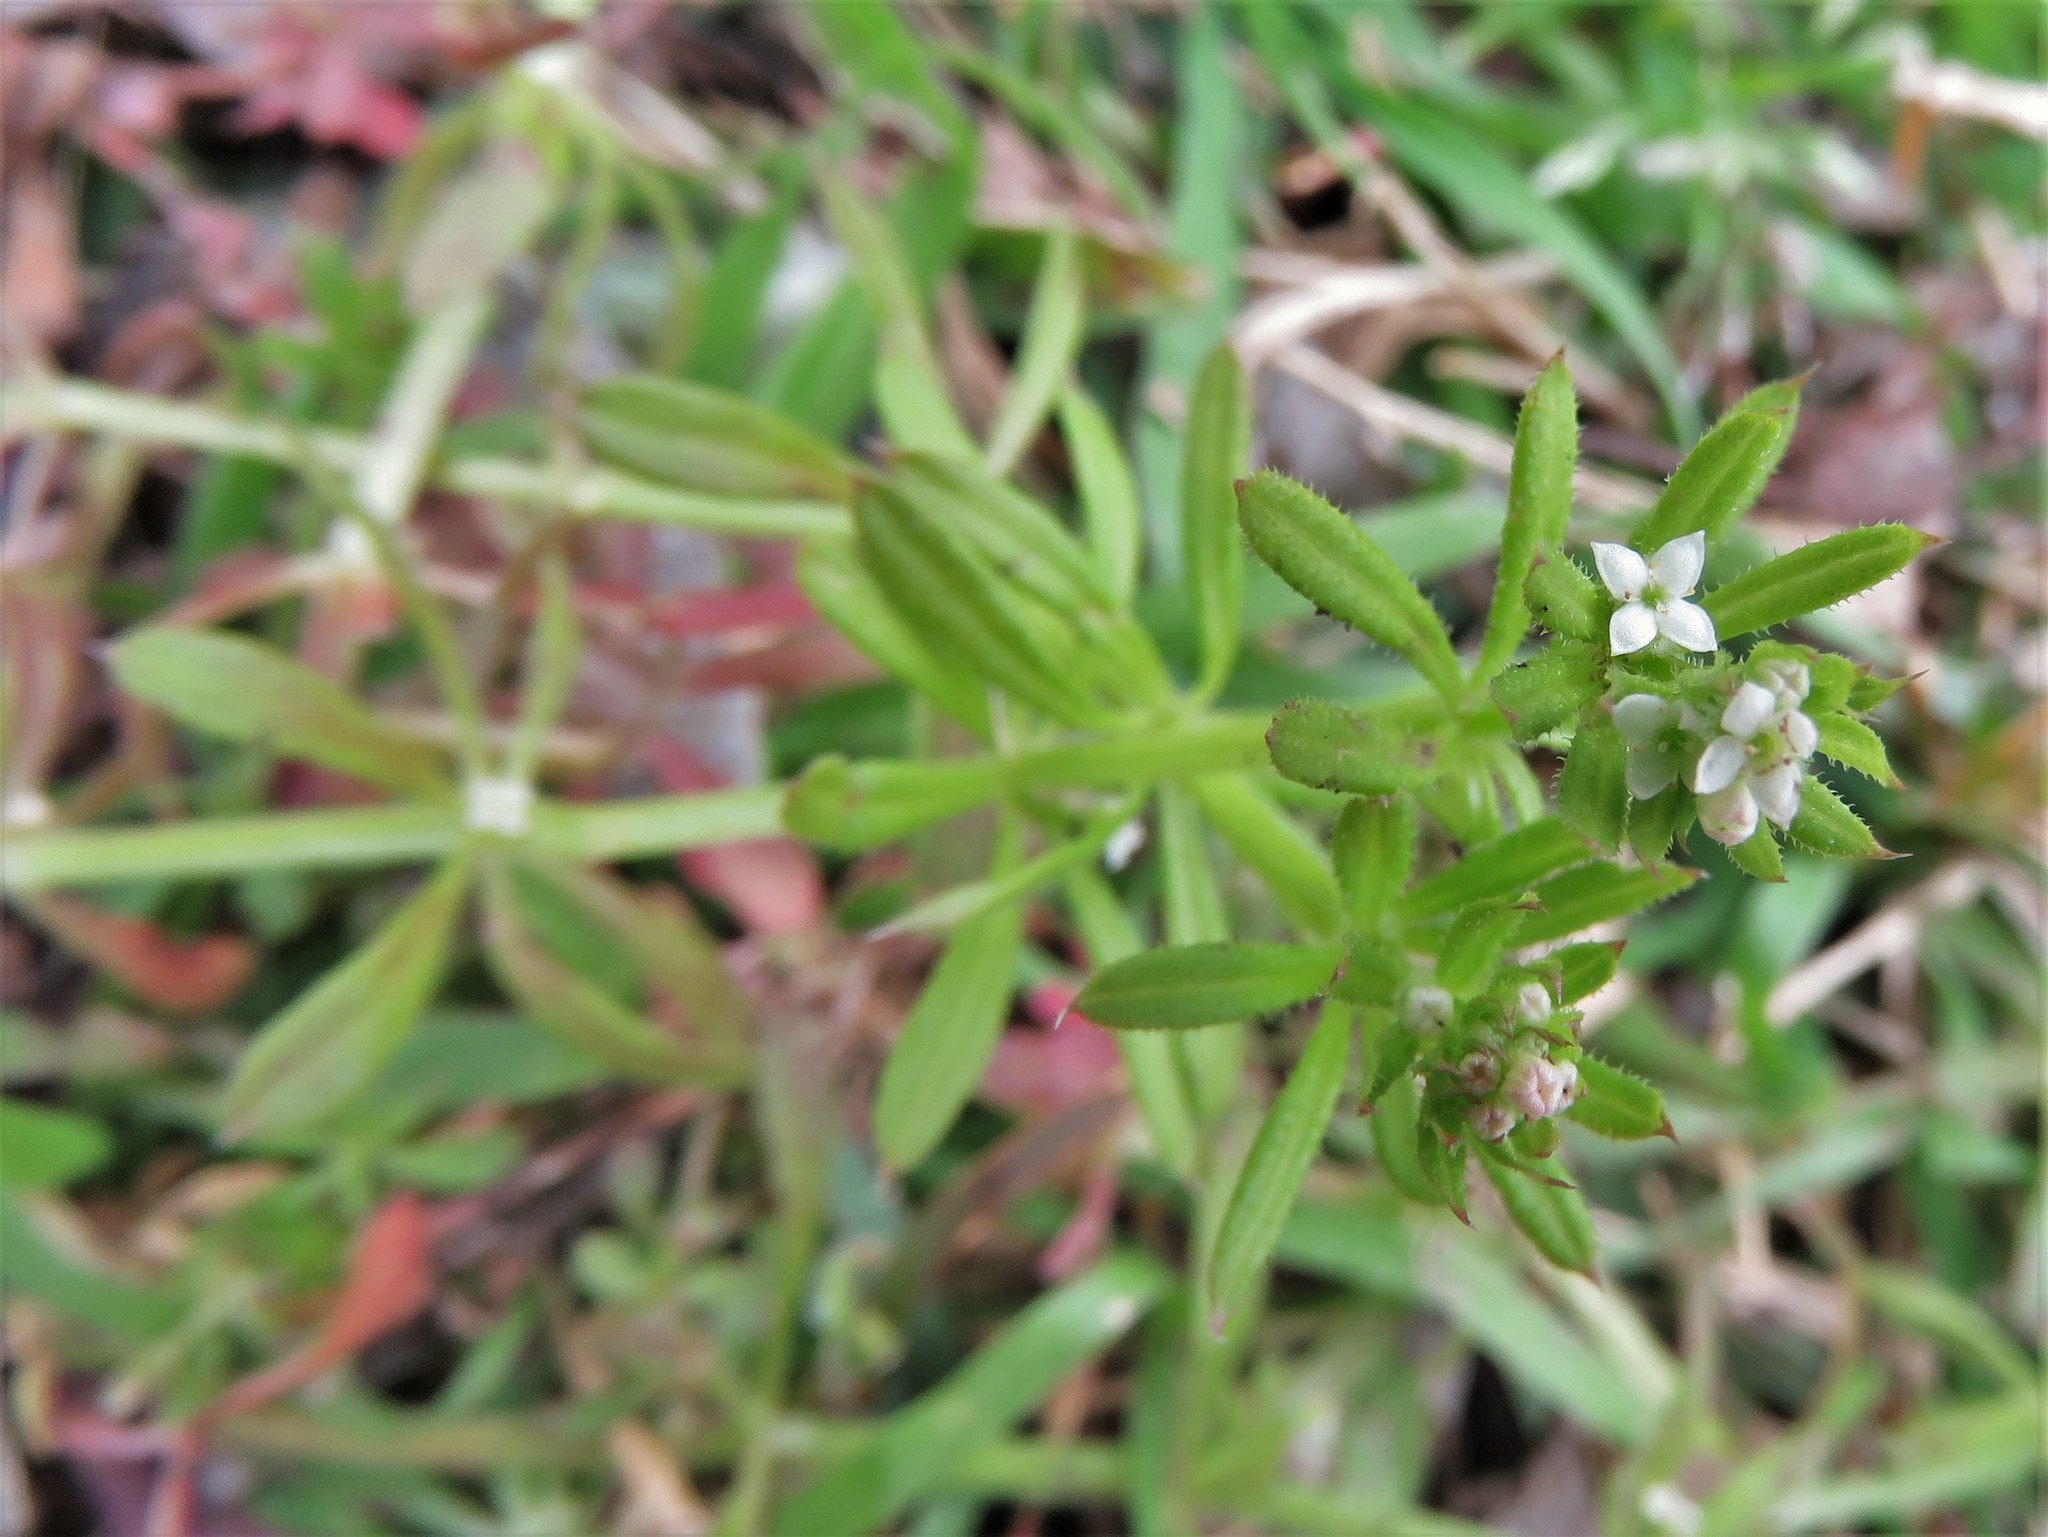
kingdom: Plantae
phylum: Tracheophyta
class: Magnoliopsida
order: Gentianales
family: Rubiaceae
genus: Galium
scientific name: Galium aparine
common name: Cleavers
